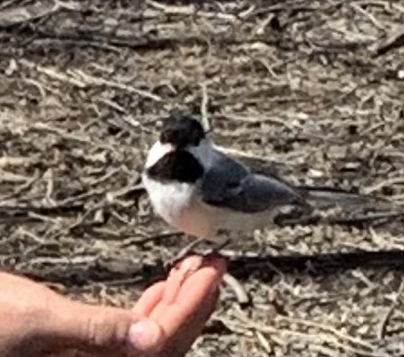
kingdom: Animalia
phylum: Chordata
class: Aves
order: Passeriformes
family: Paridae
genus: Poecile
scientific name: Poecile atricapillus
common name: Black-capped chickadee
